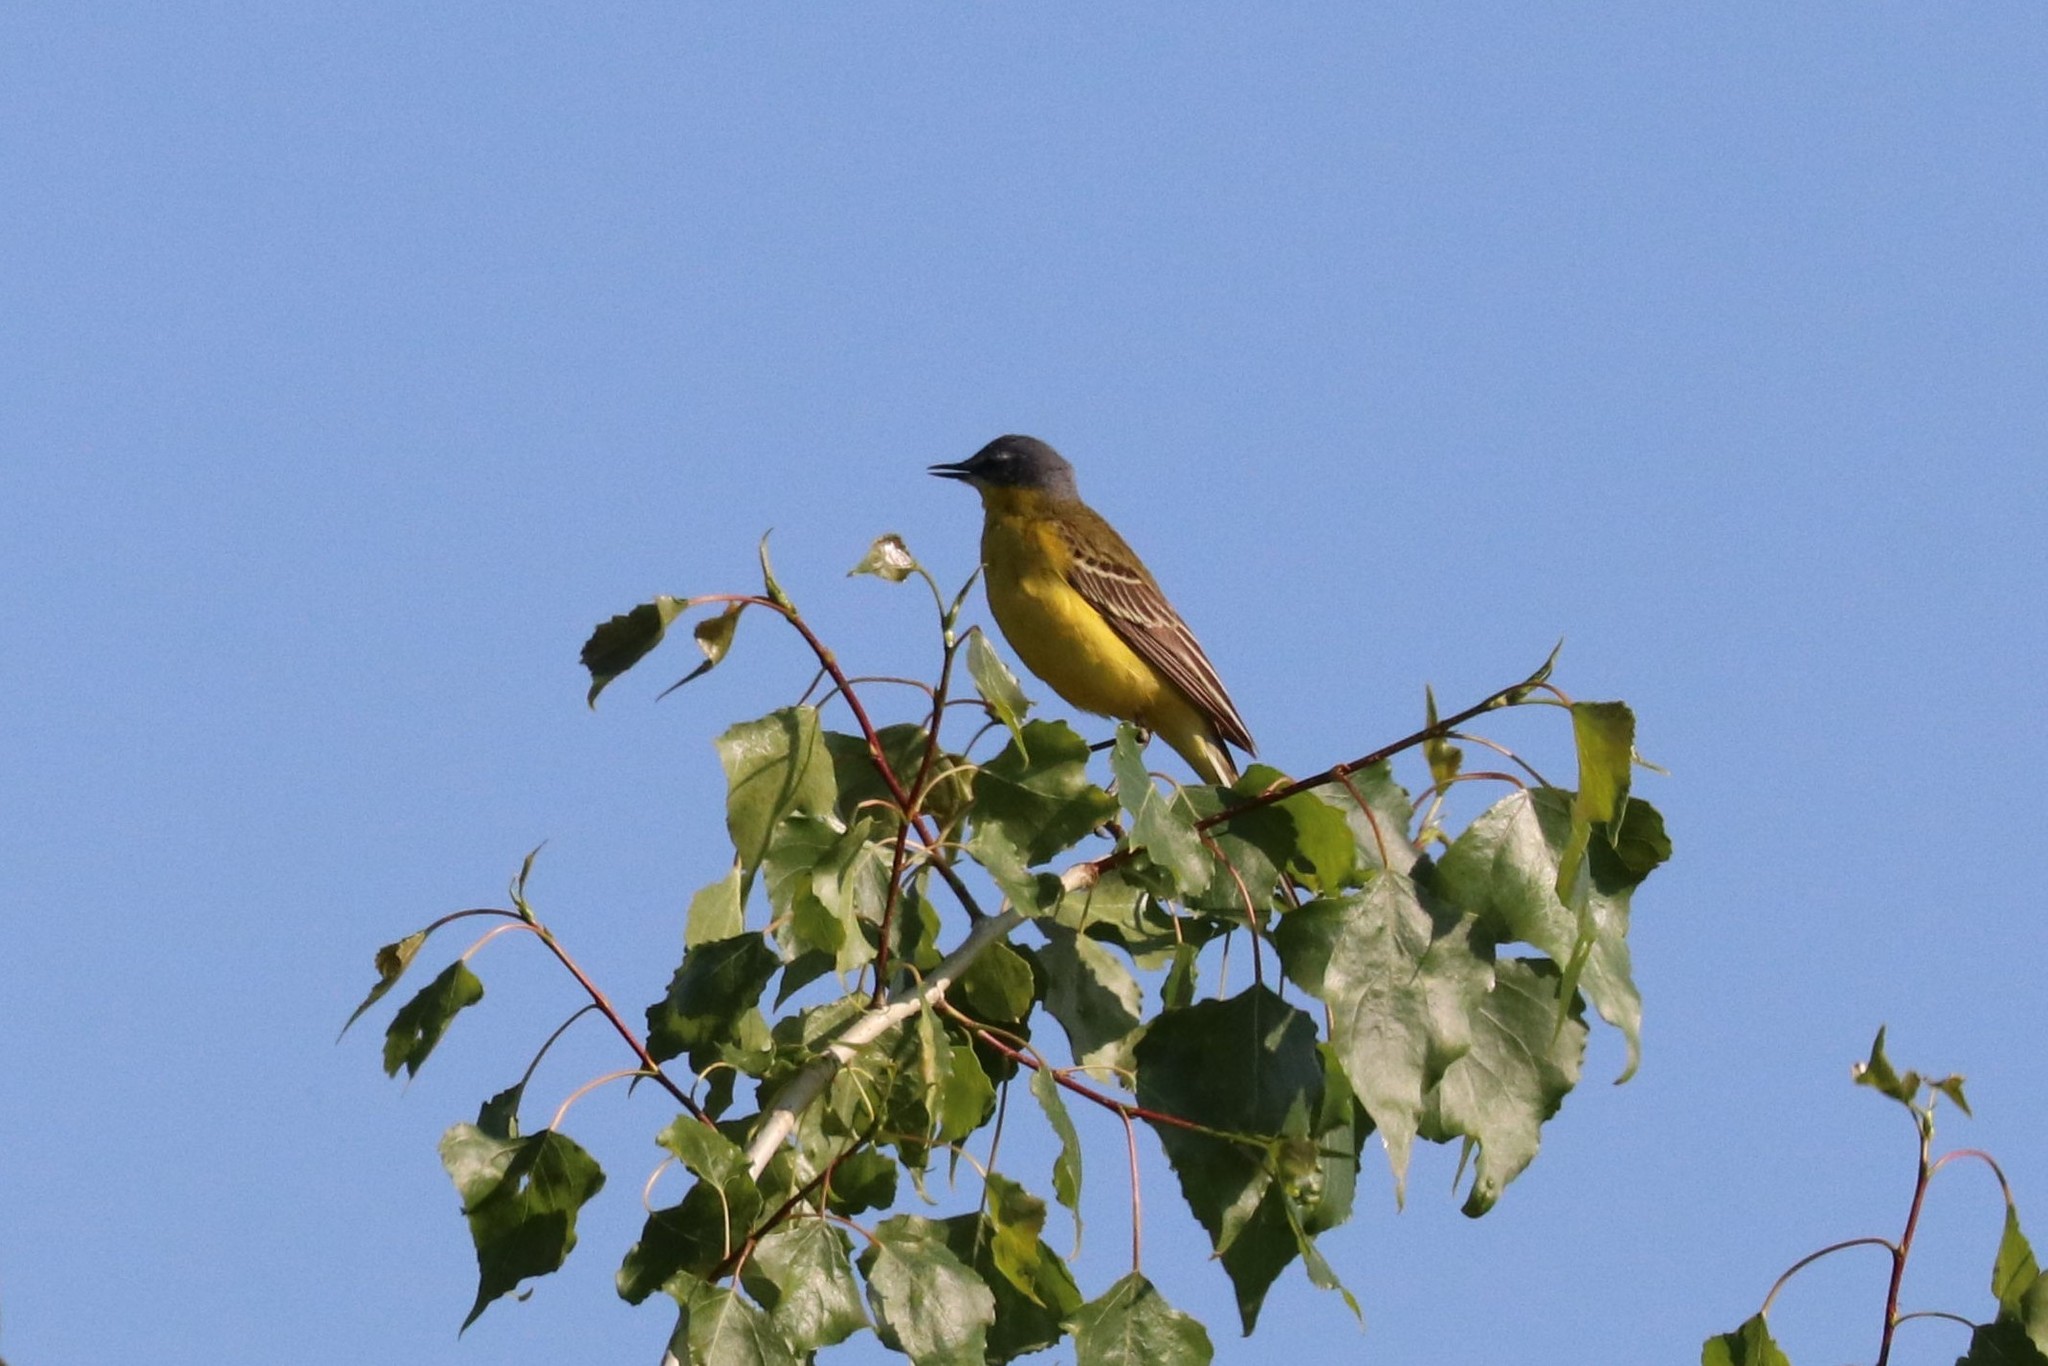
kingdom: Animalia
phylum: Chordata
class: Aves
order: Passeriformes
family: Motacillidae
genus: Motacilla
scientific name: Motacilla flava
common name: Western yellow wagtail
